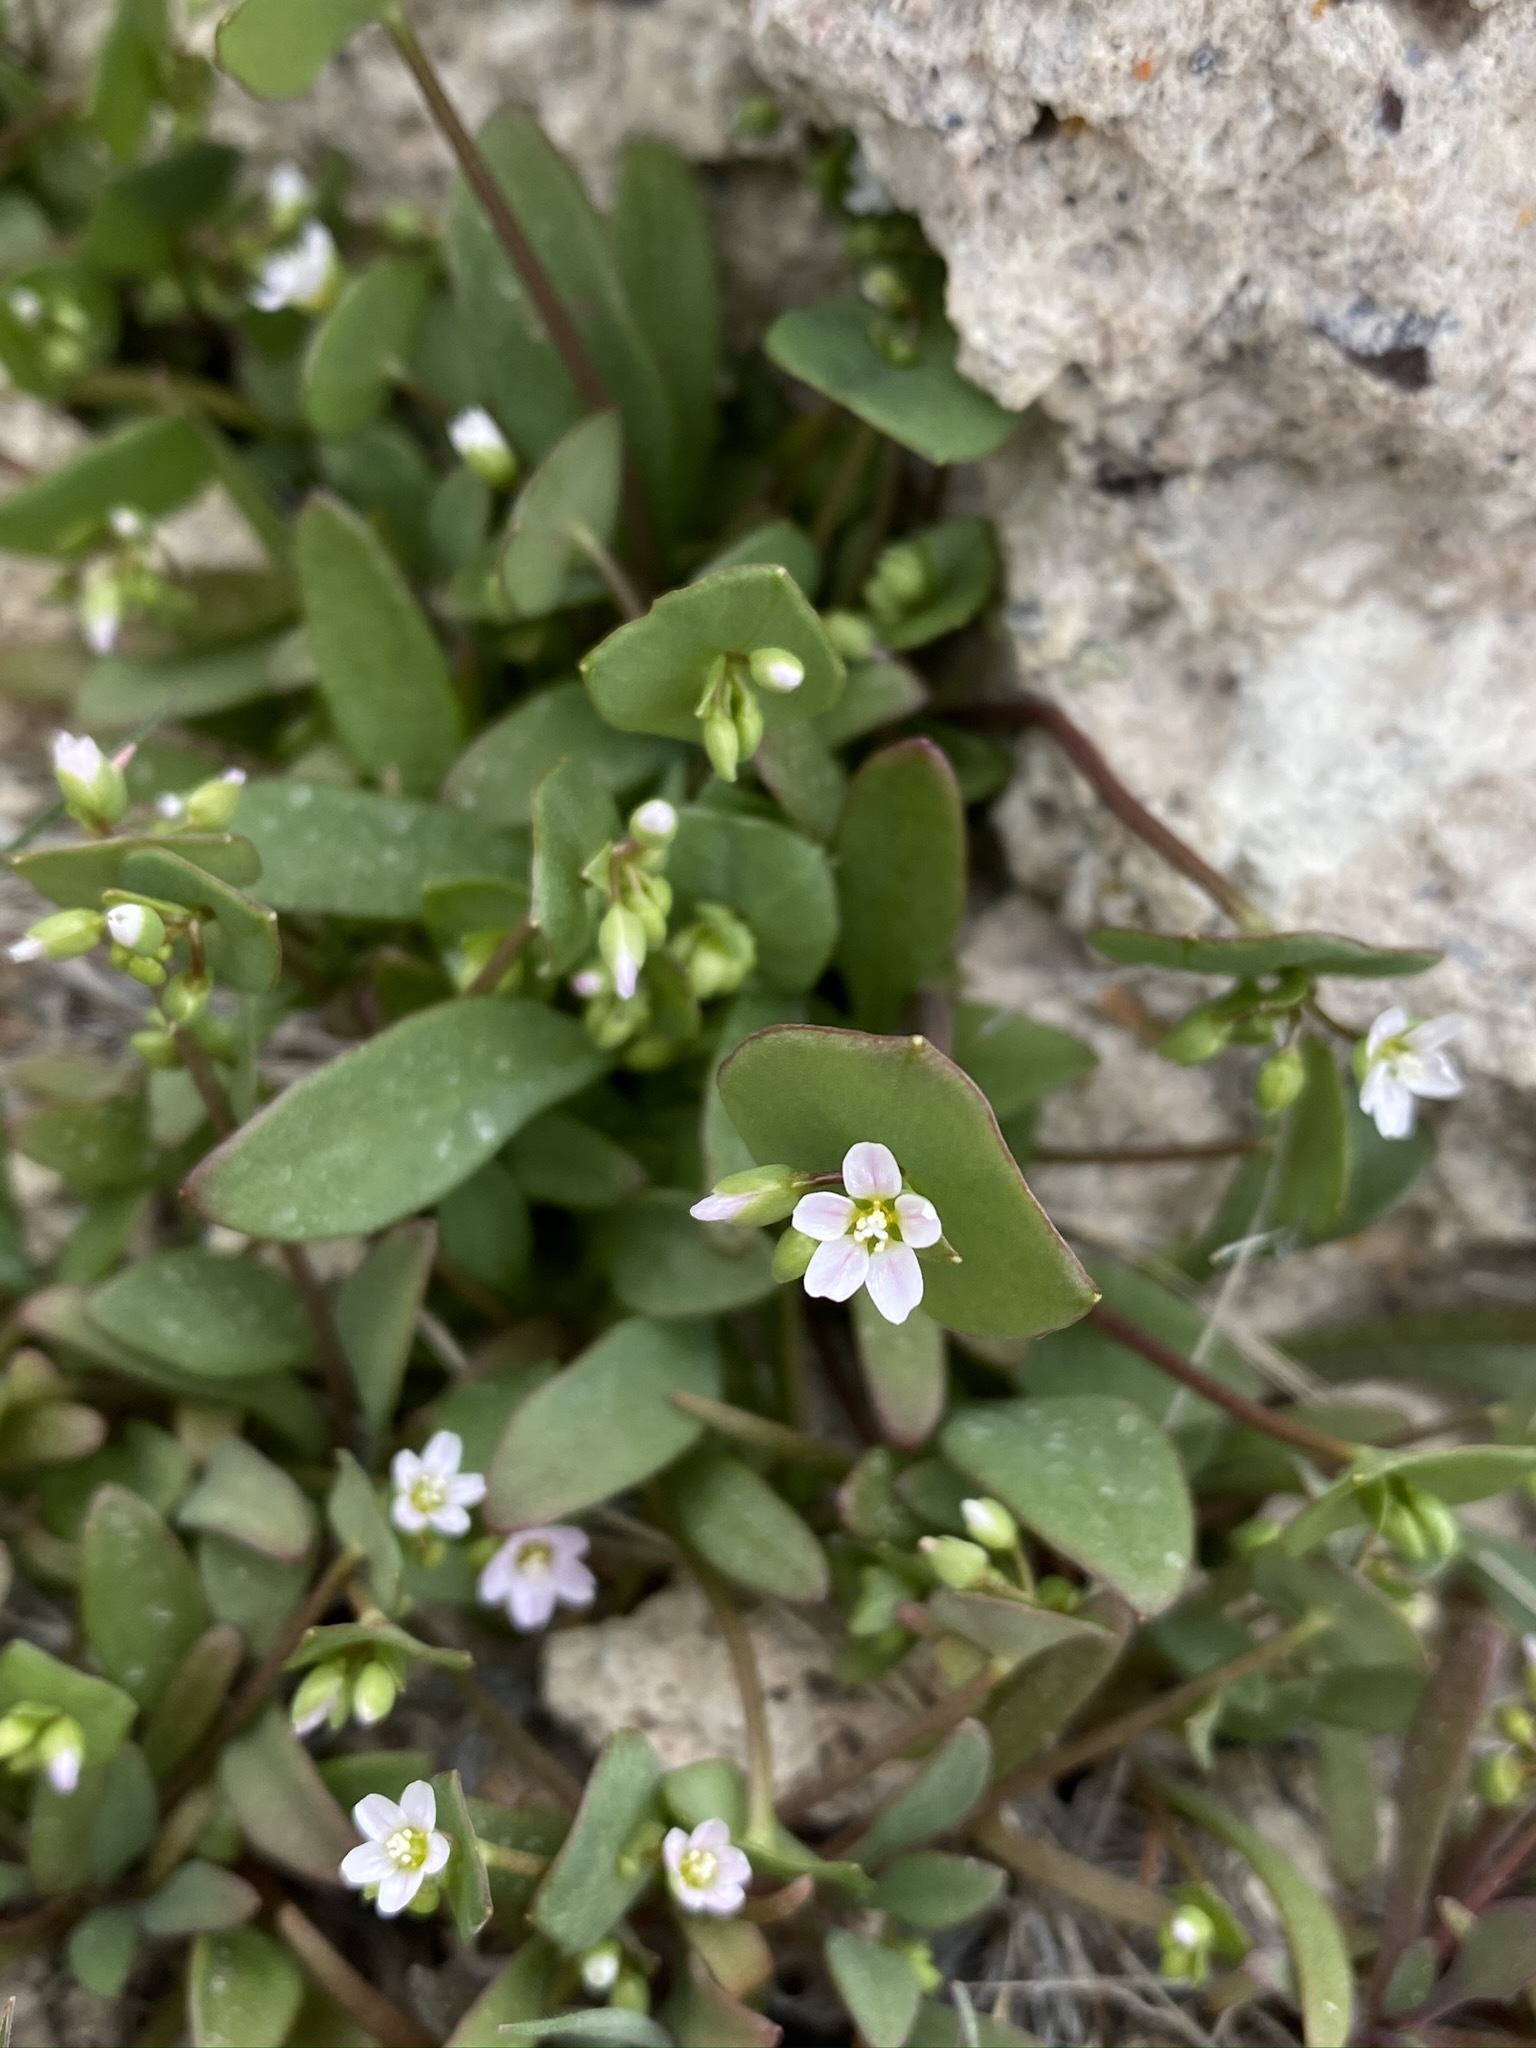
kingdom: Plantae
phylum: Tracheophyta
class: Magnoliopsida
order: Caryophyllales
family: Montiaceae
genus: Claytonia
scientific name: Claytonia perfoliata
